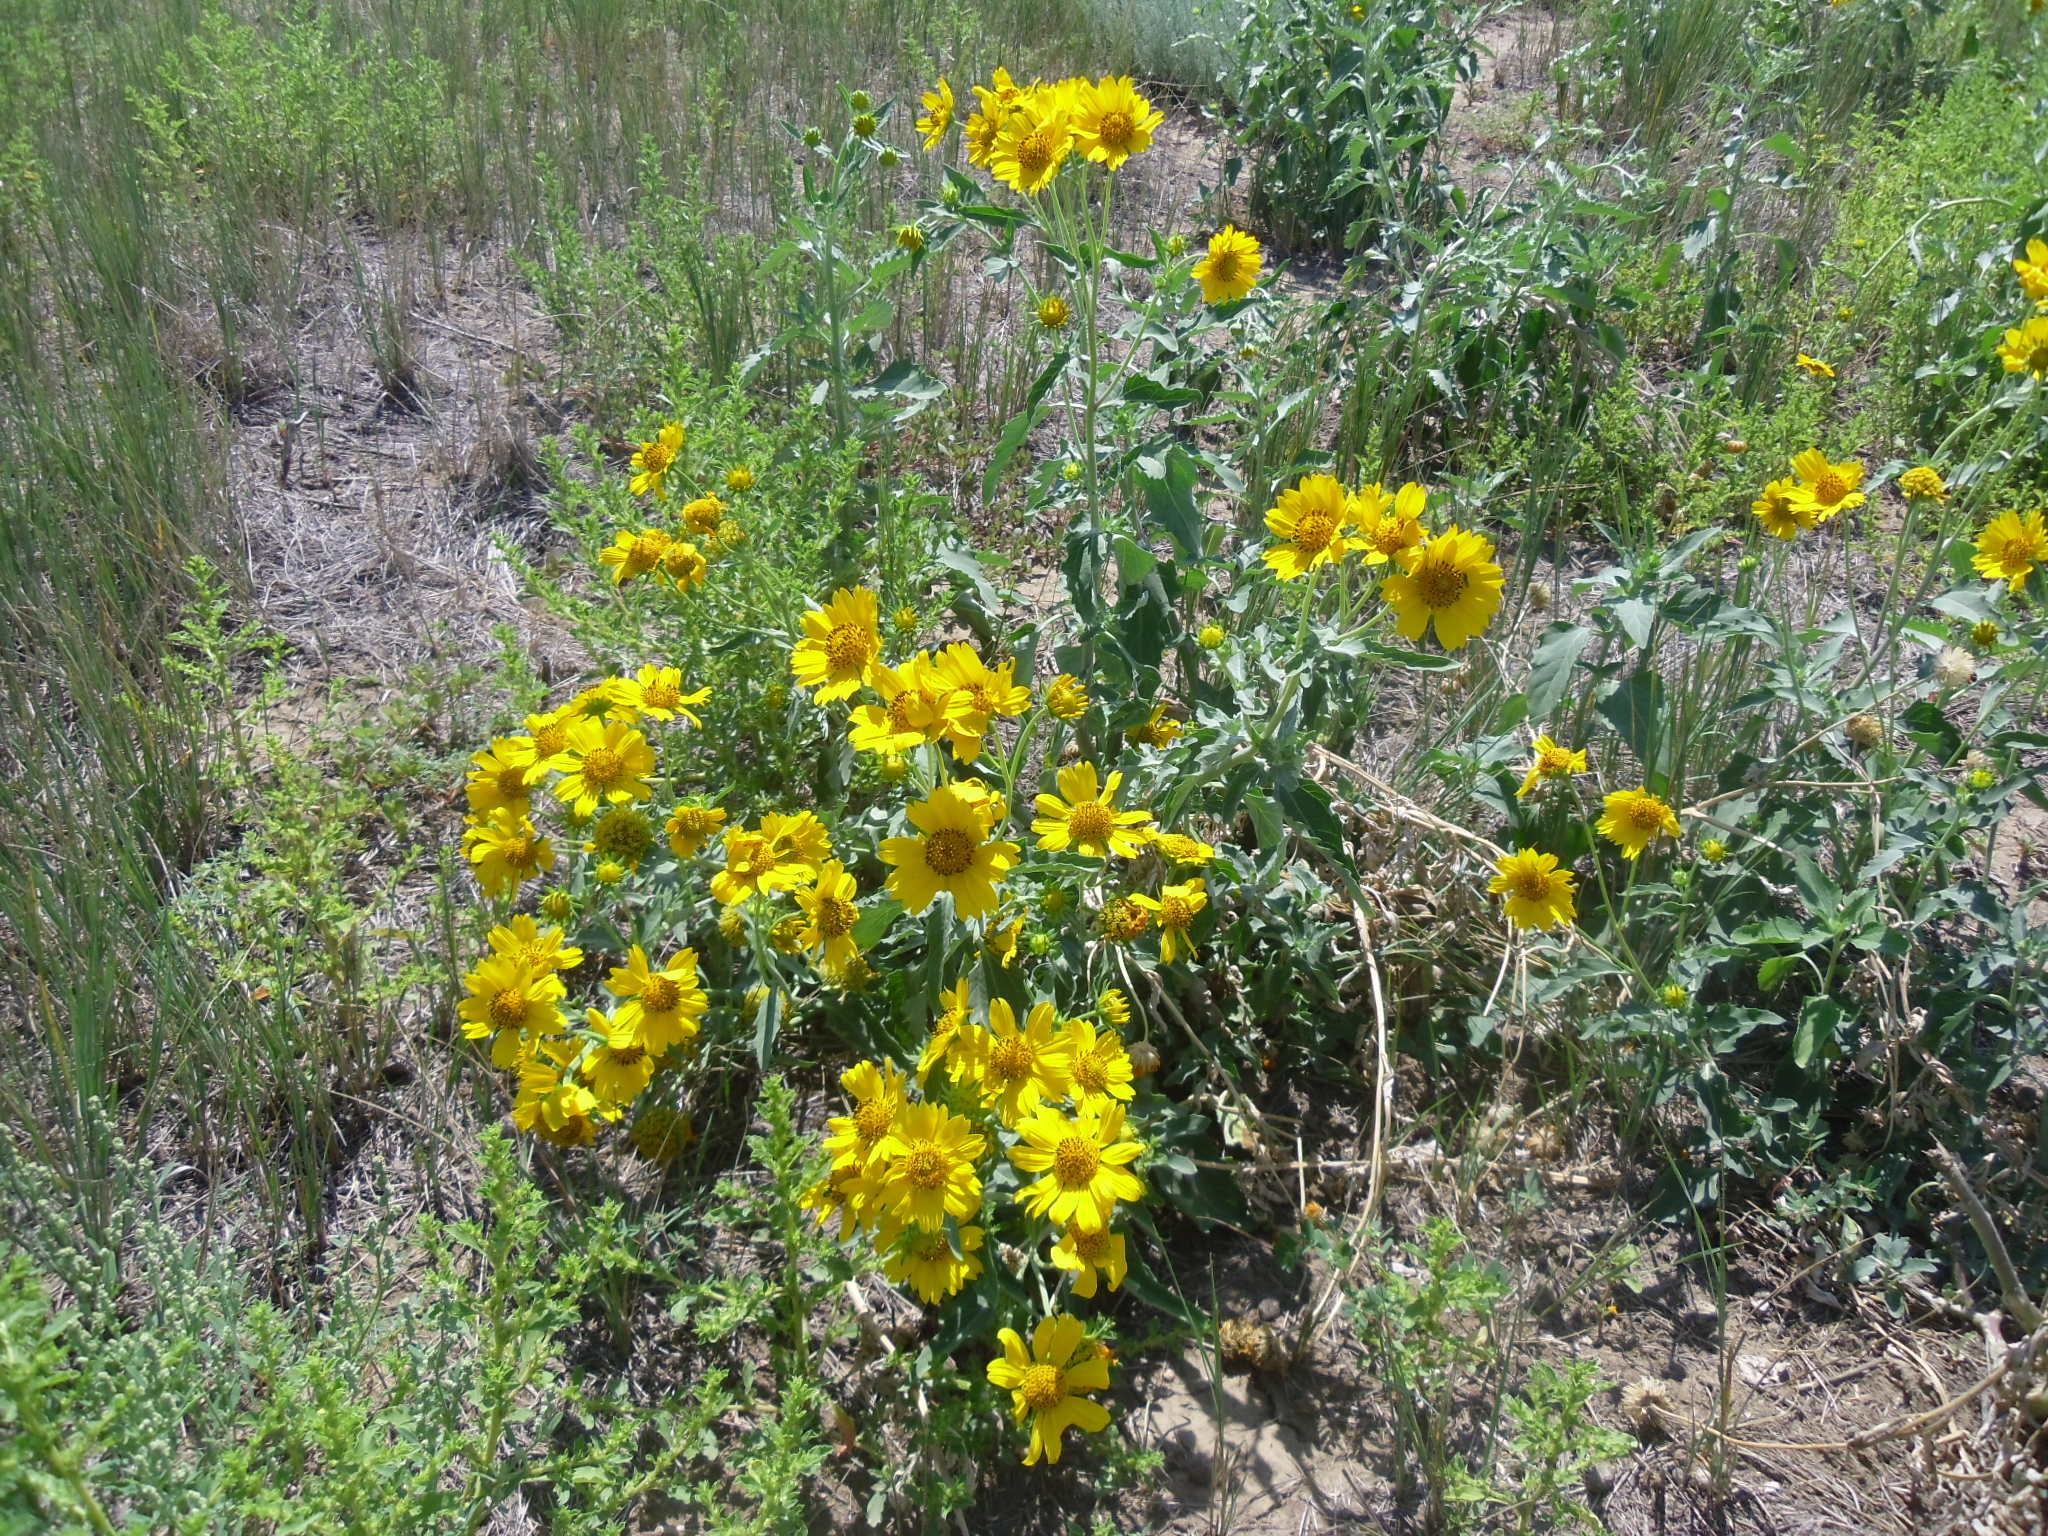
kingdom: Plantae
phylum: Tracheophyta
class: Magnoliopsida
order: Asterales
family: Asteraceae
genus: Verbesina
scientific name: Verbesina encelioides
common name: Golden crownbeard
